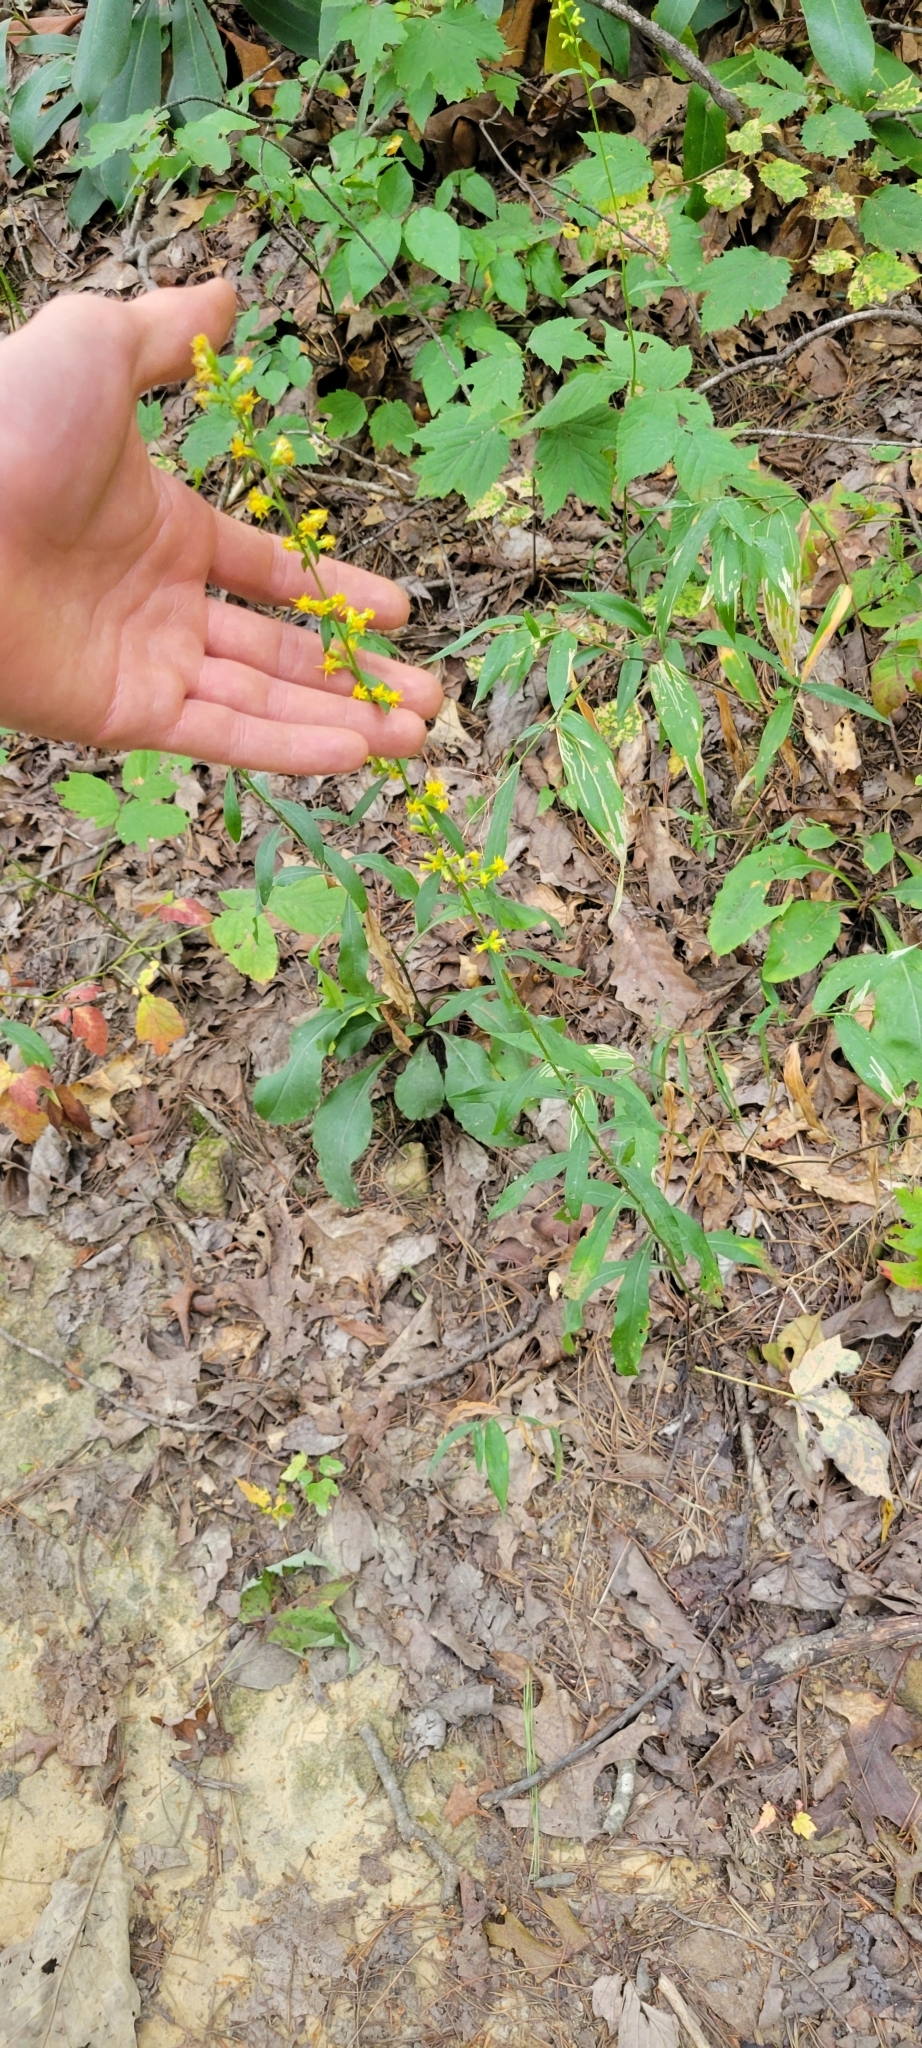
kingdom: Plantae
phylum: Tracheophyta
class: Magnoliopsida
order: Asterales
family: Asteraceae
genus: Solidago
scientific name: Solidago erecta
